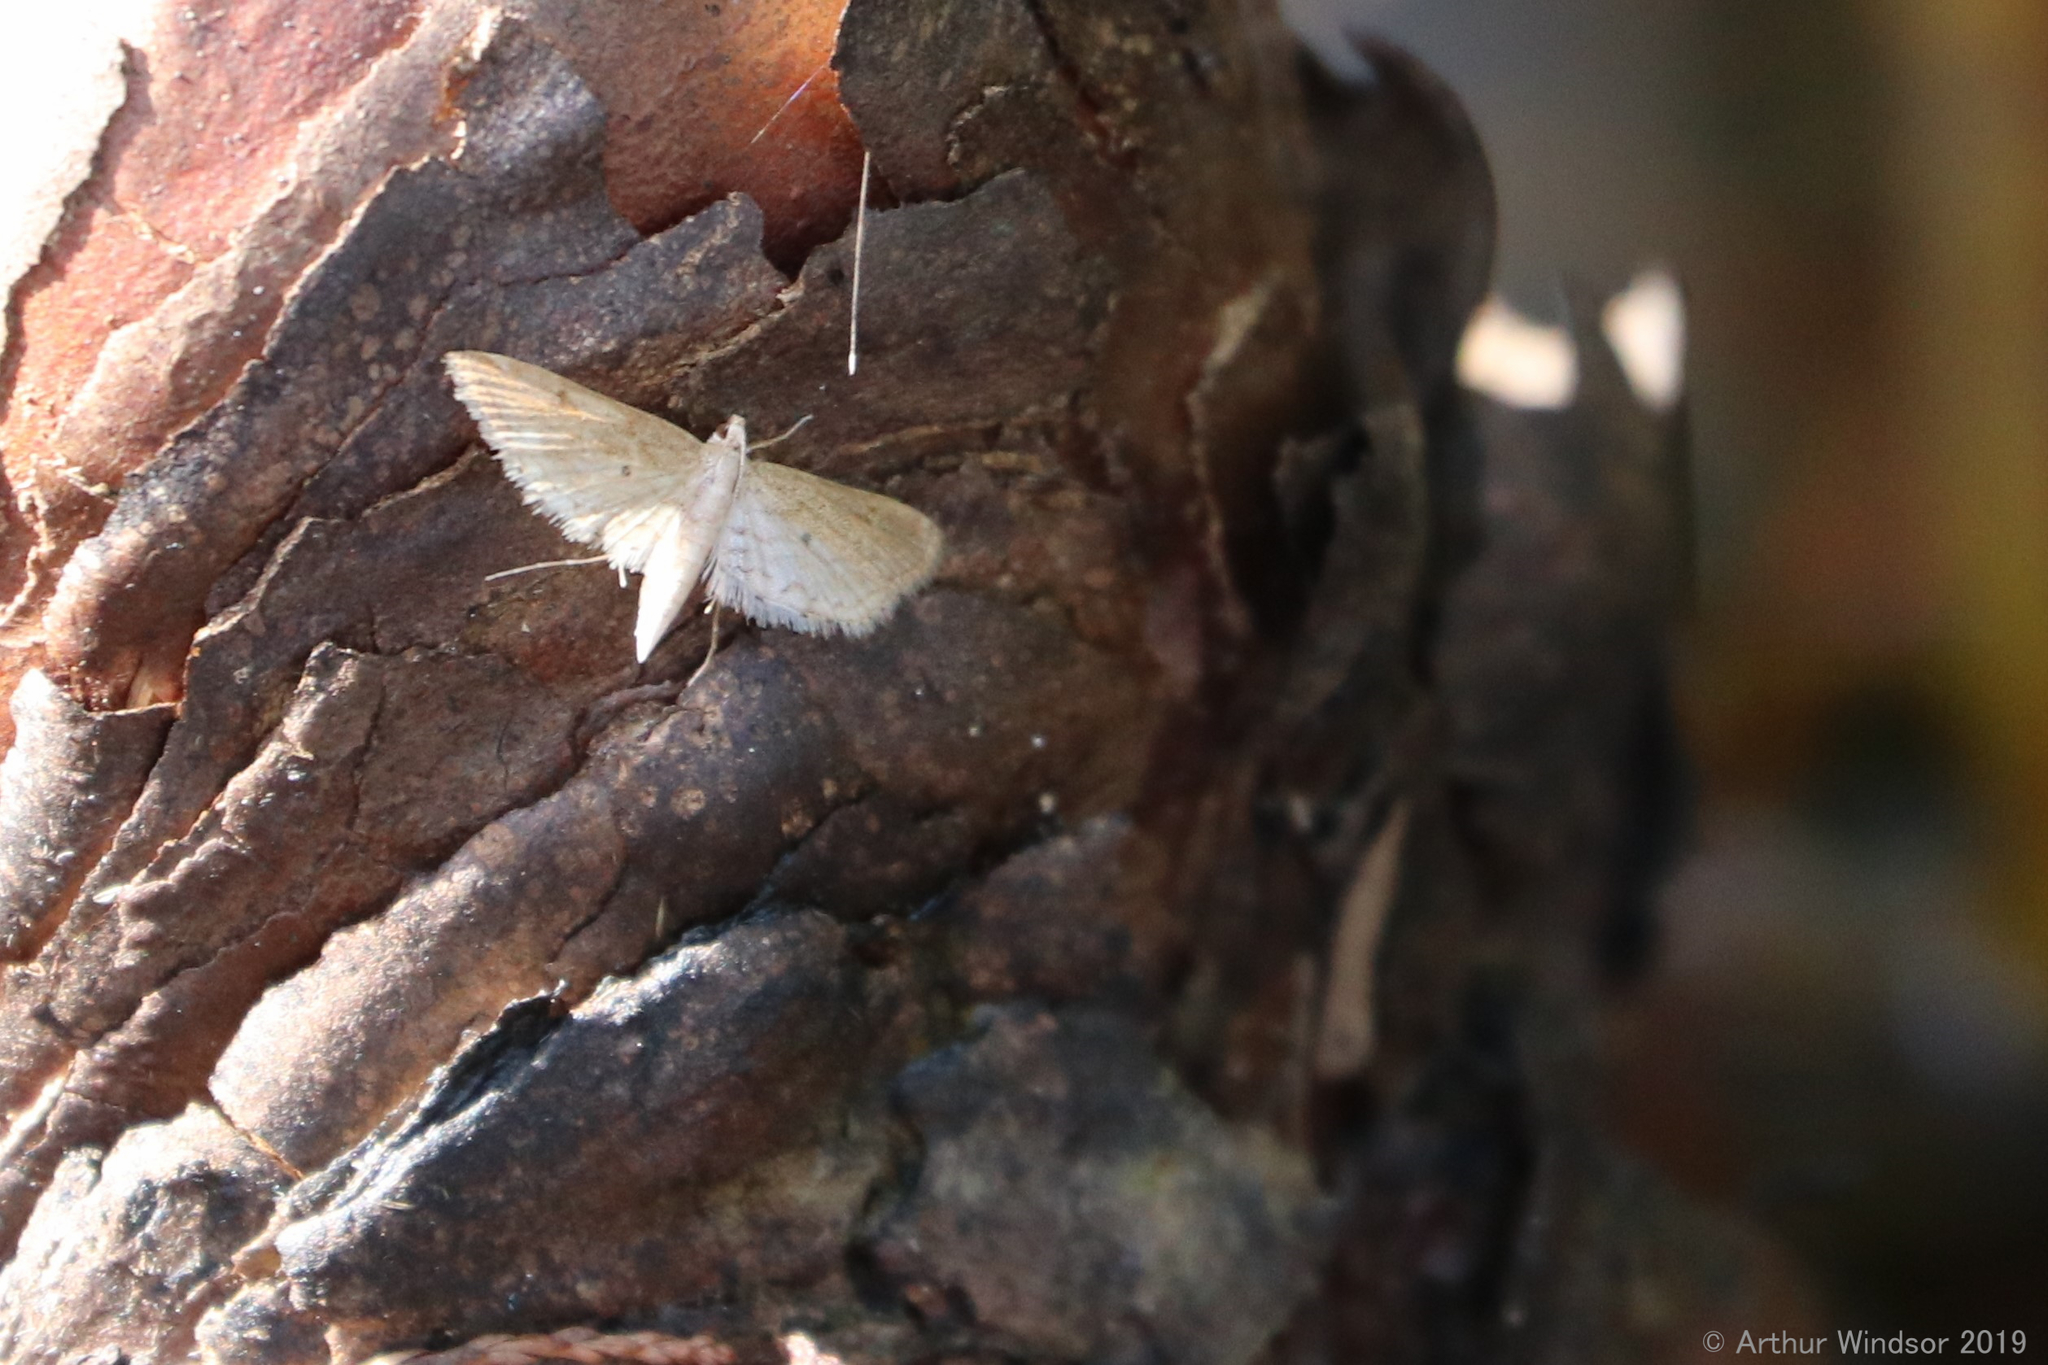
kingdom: Animalia
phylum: Arthropoda
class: Insecta
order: Lepidoptera
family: Crambidae
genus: Parapoynx
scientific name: Parapoynx allionealis
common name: Bladderwort casemaker
